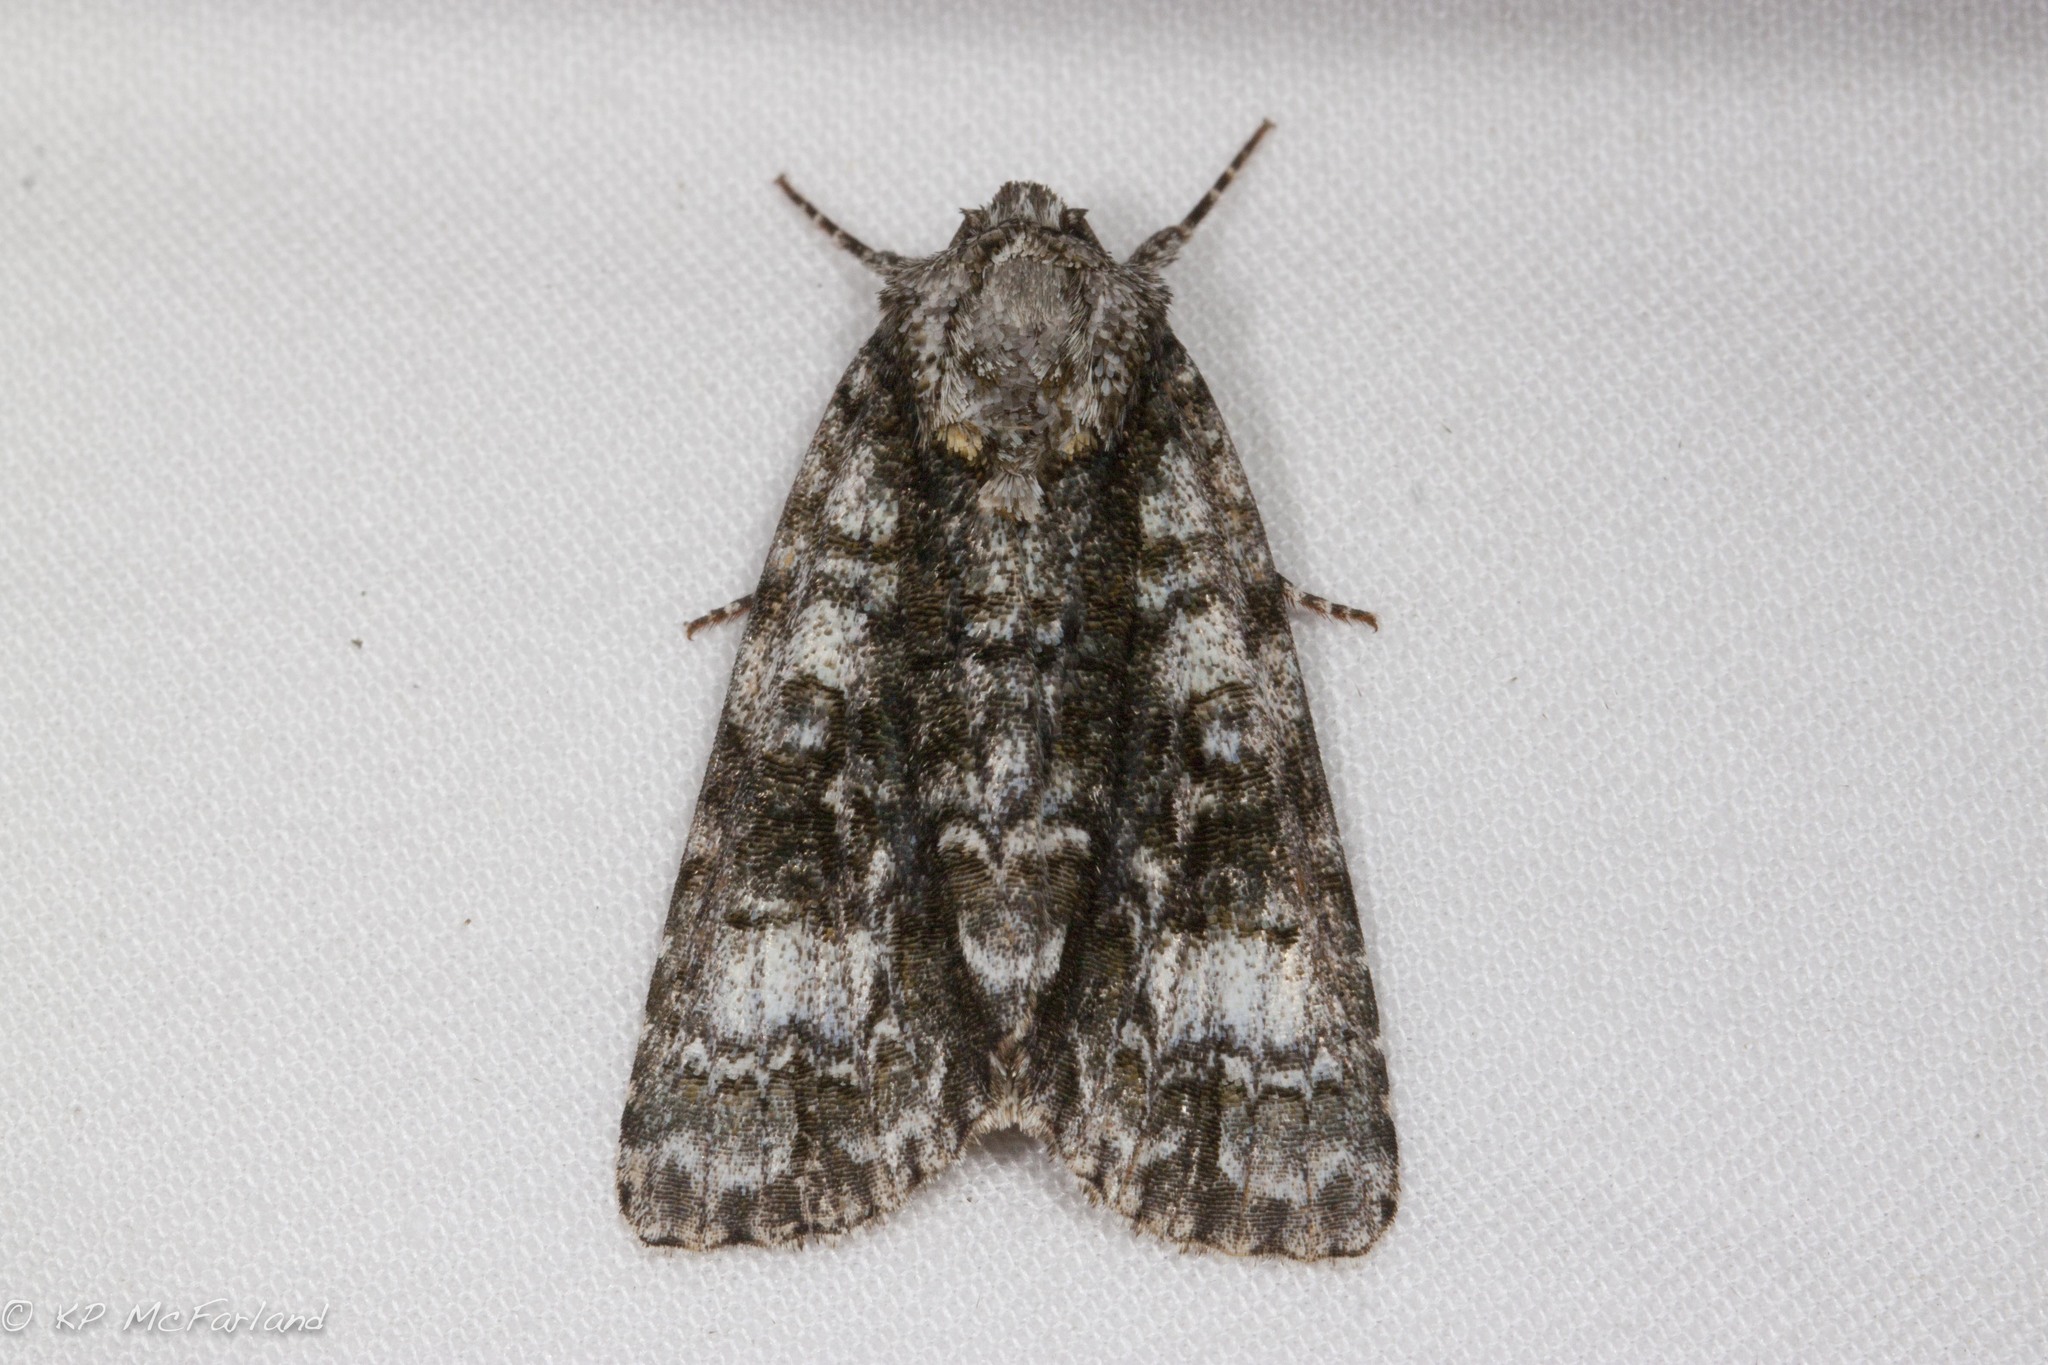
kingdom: Animalia
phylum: Arthropoda
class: Insecta
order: Lepidoptera
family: Noctuidae
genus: Acronicta
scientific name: Acronicta superans
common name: Splendid dagger
